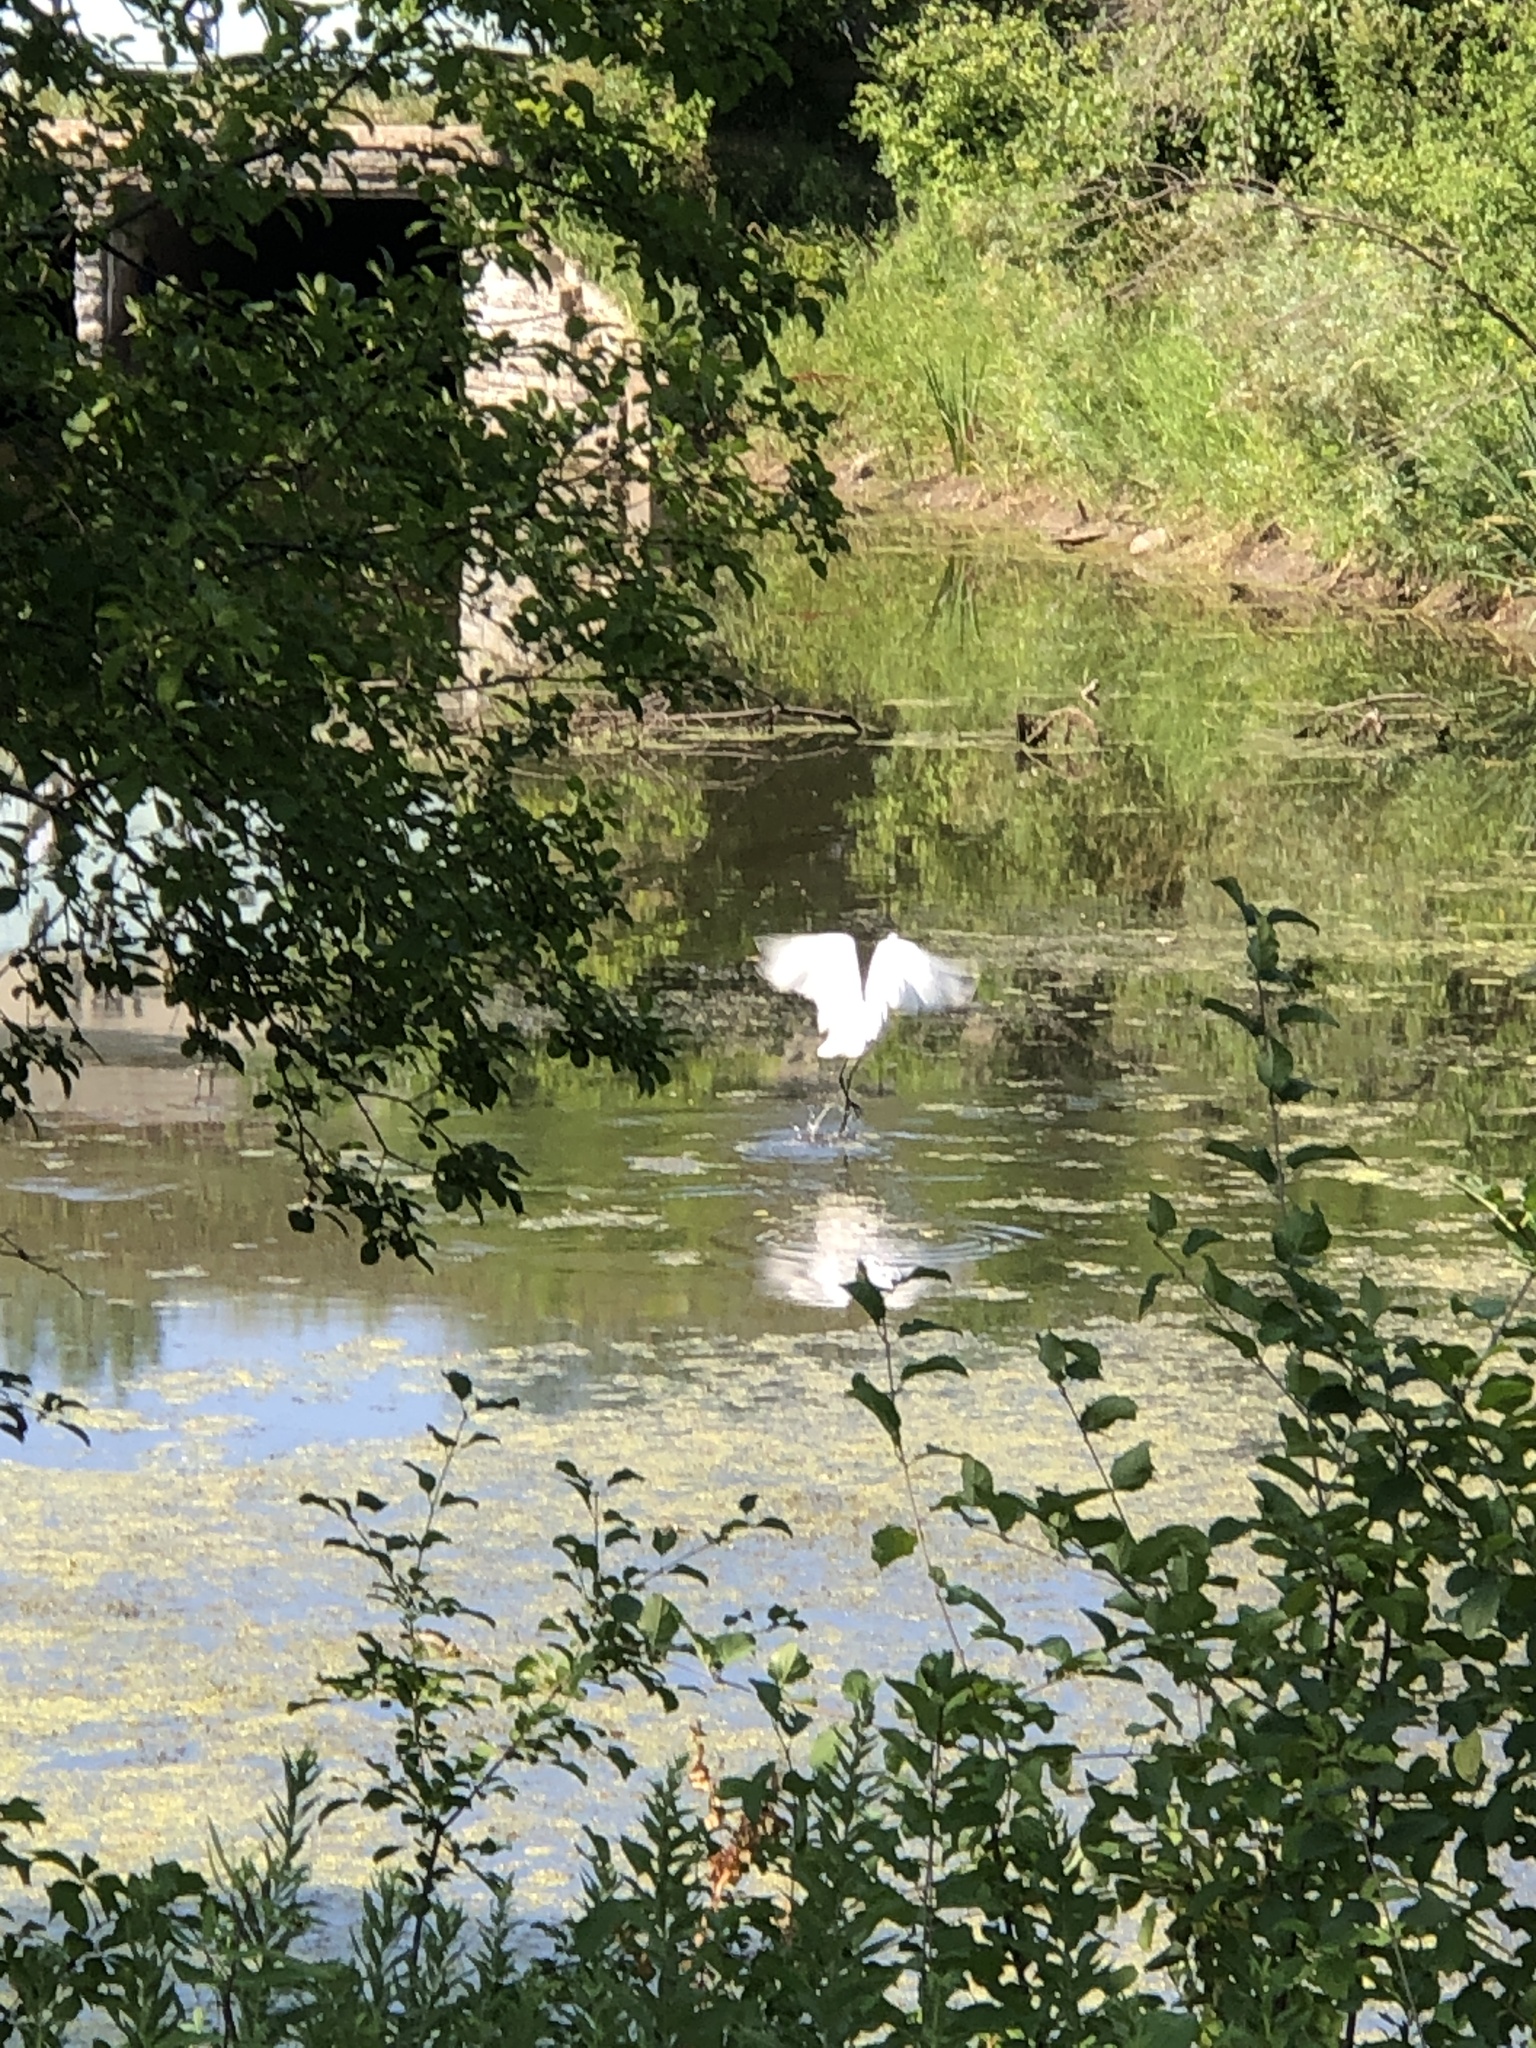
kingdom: Animalia
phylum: Chordata
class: Aves
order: Pelecaniformes
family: Ardeidae
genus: Ardea
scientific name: Ardea alba
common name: Great egret
